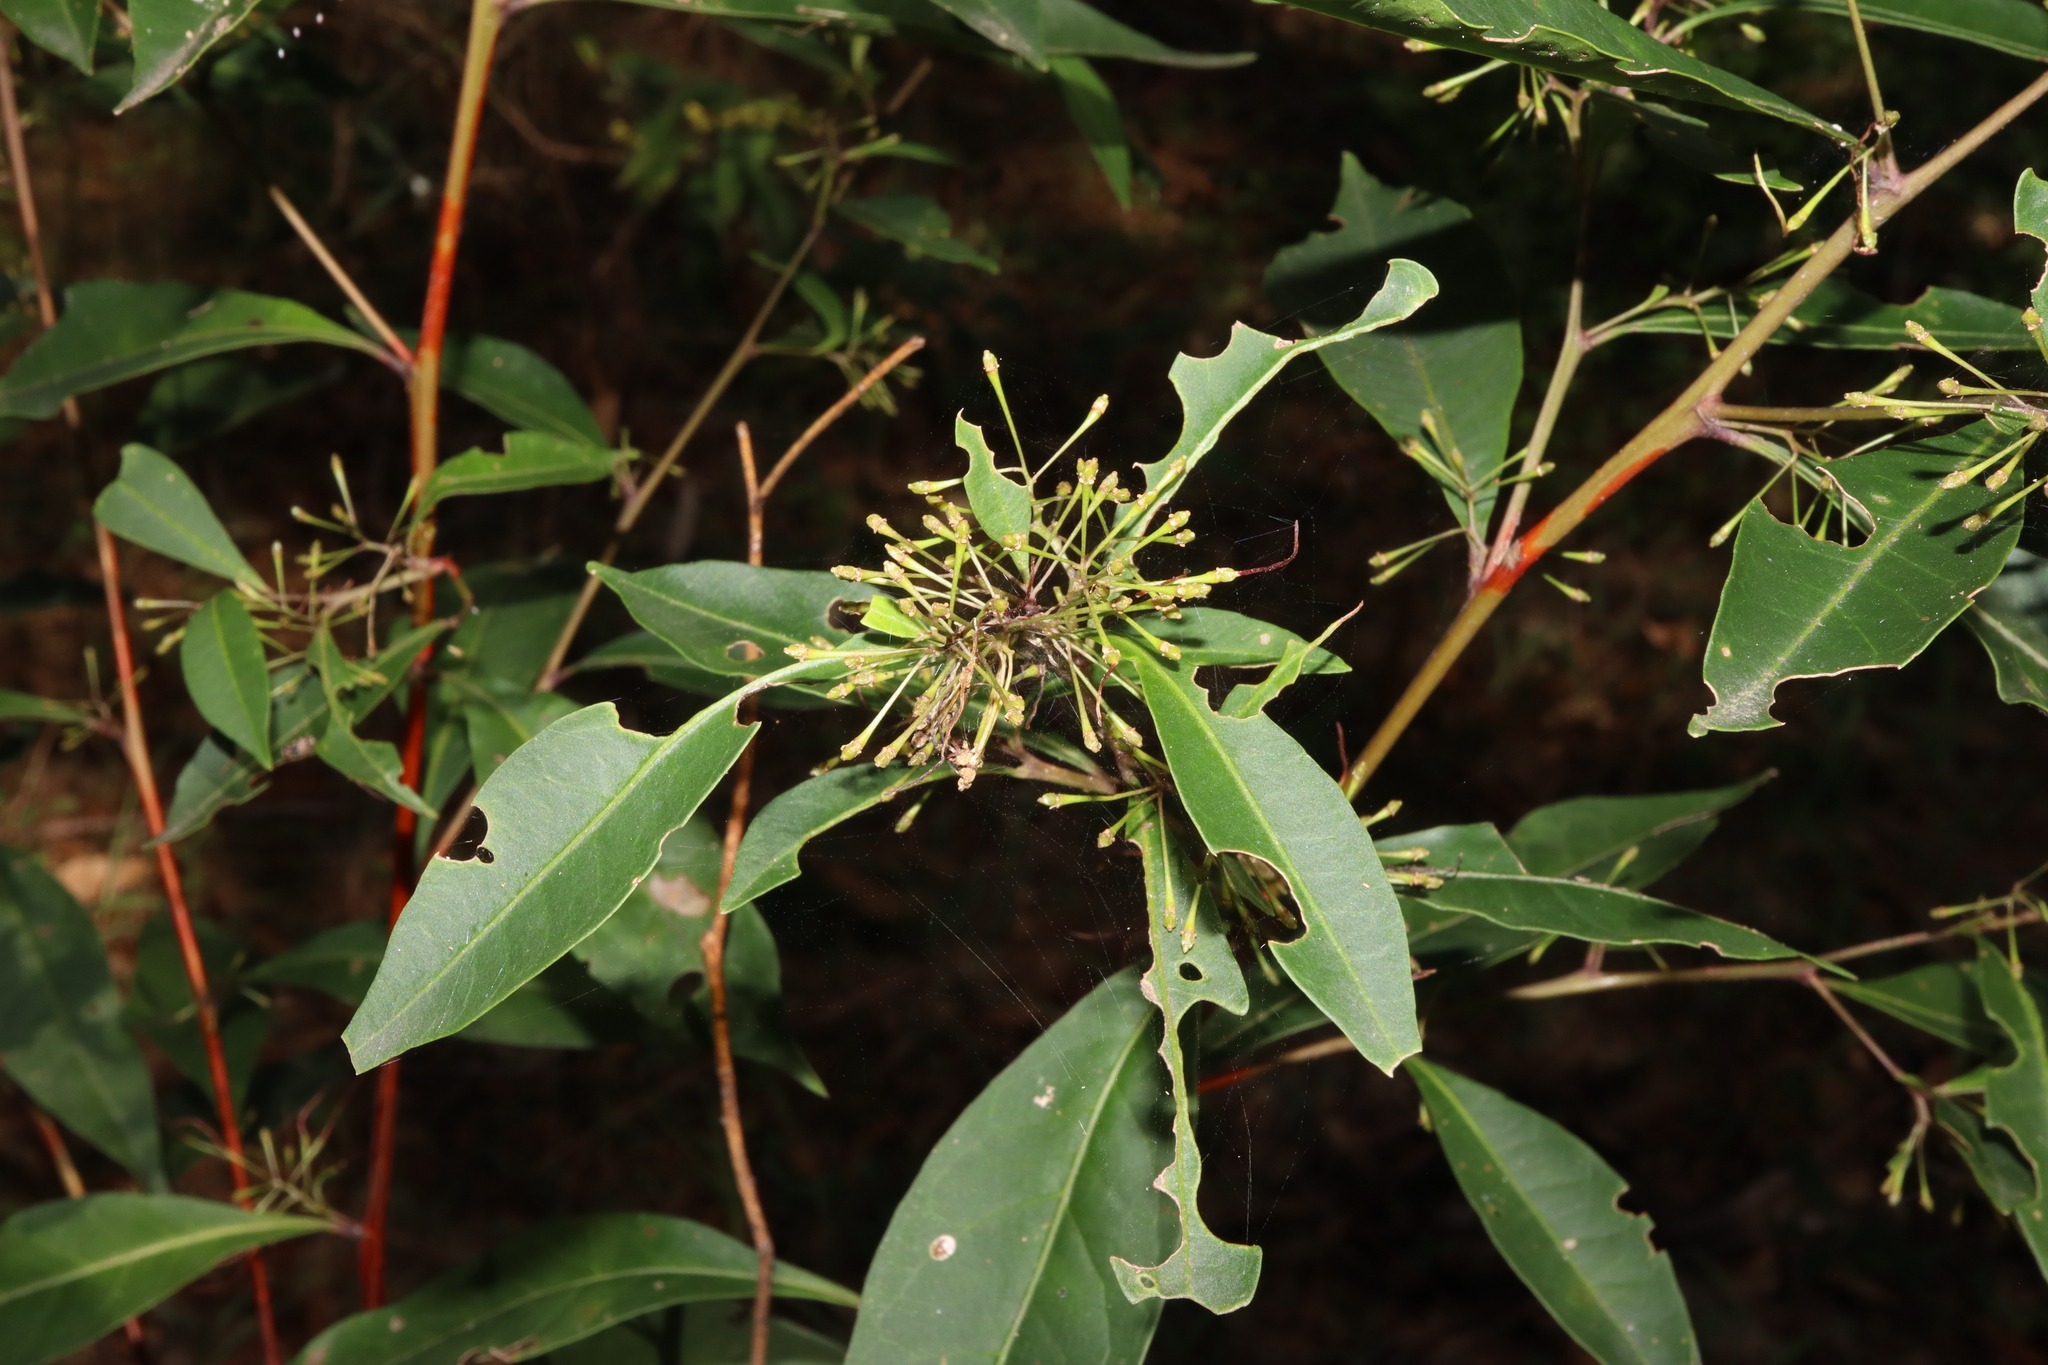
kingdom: Plantae
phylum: Tracheophyta
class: Magnoliopsida
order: Sapindales
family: Sapindaceae
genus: Dodonaea
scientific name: Dodonaea triquetra
